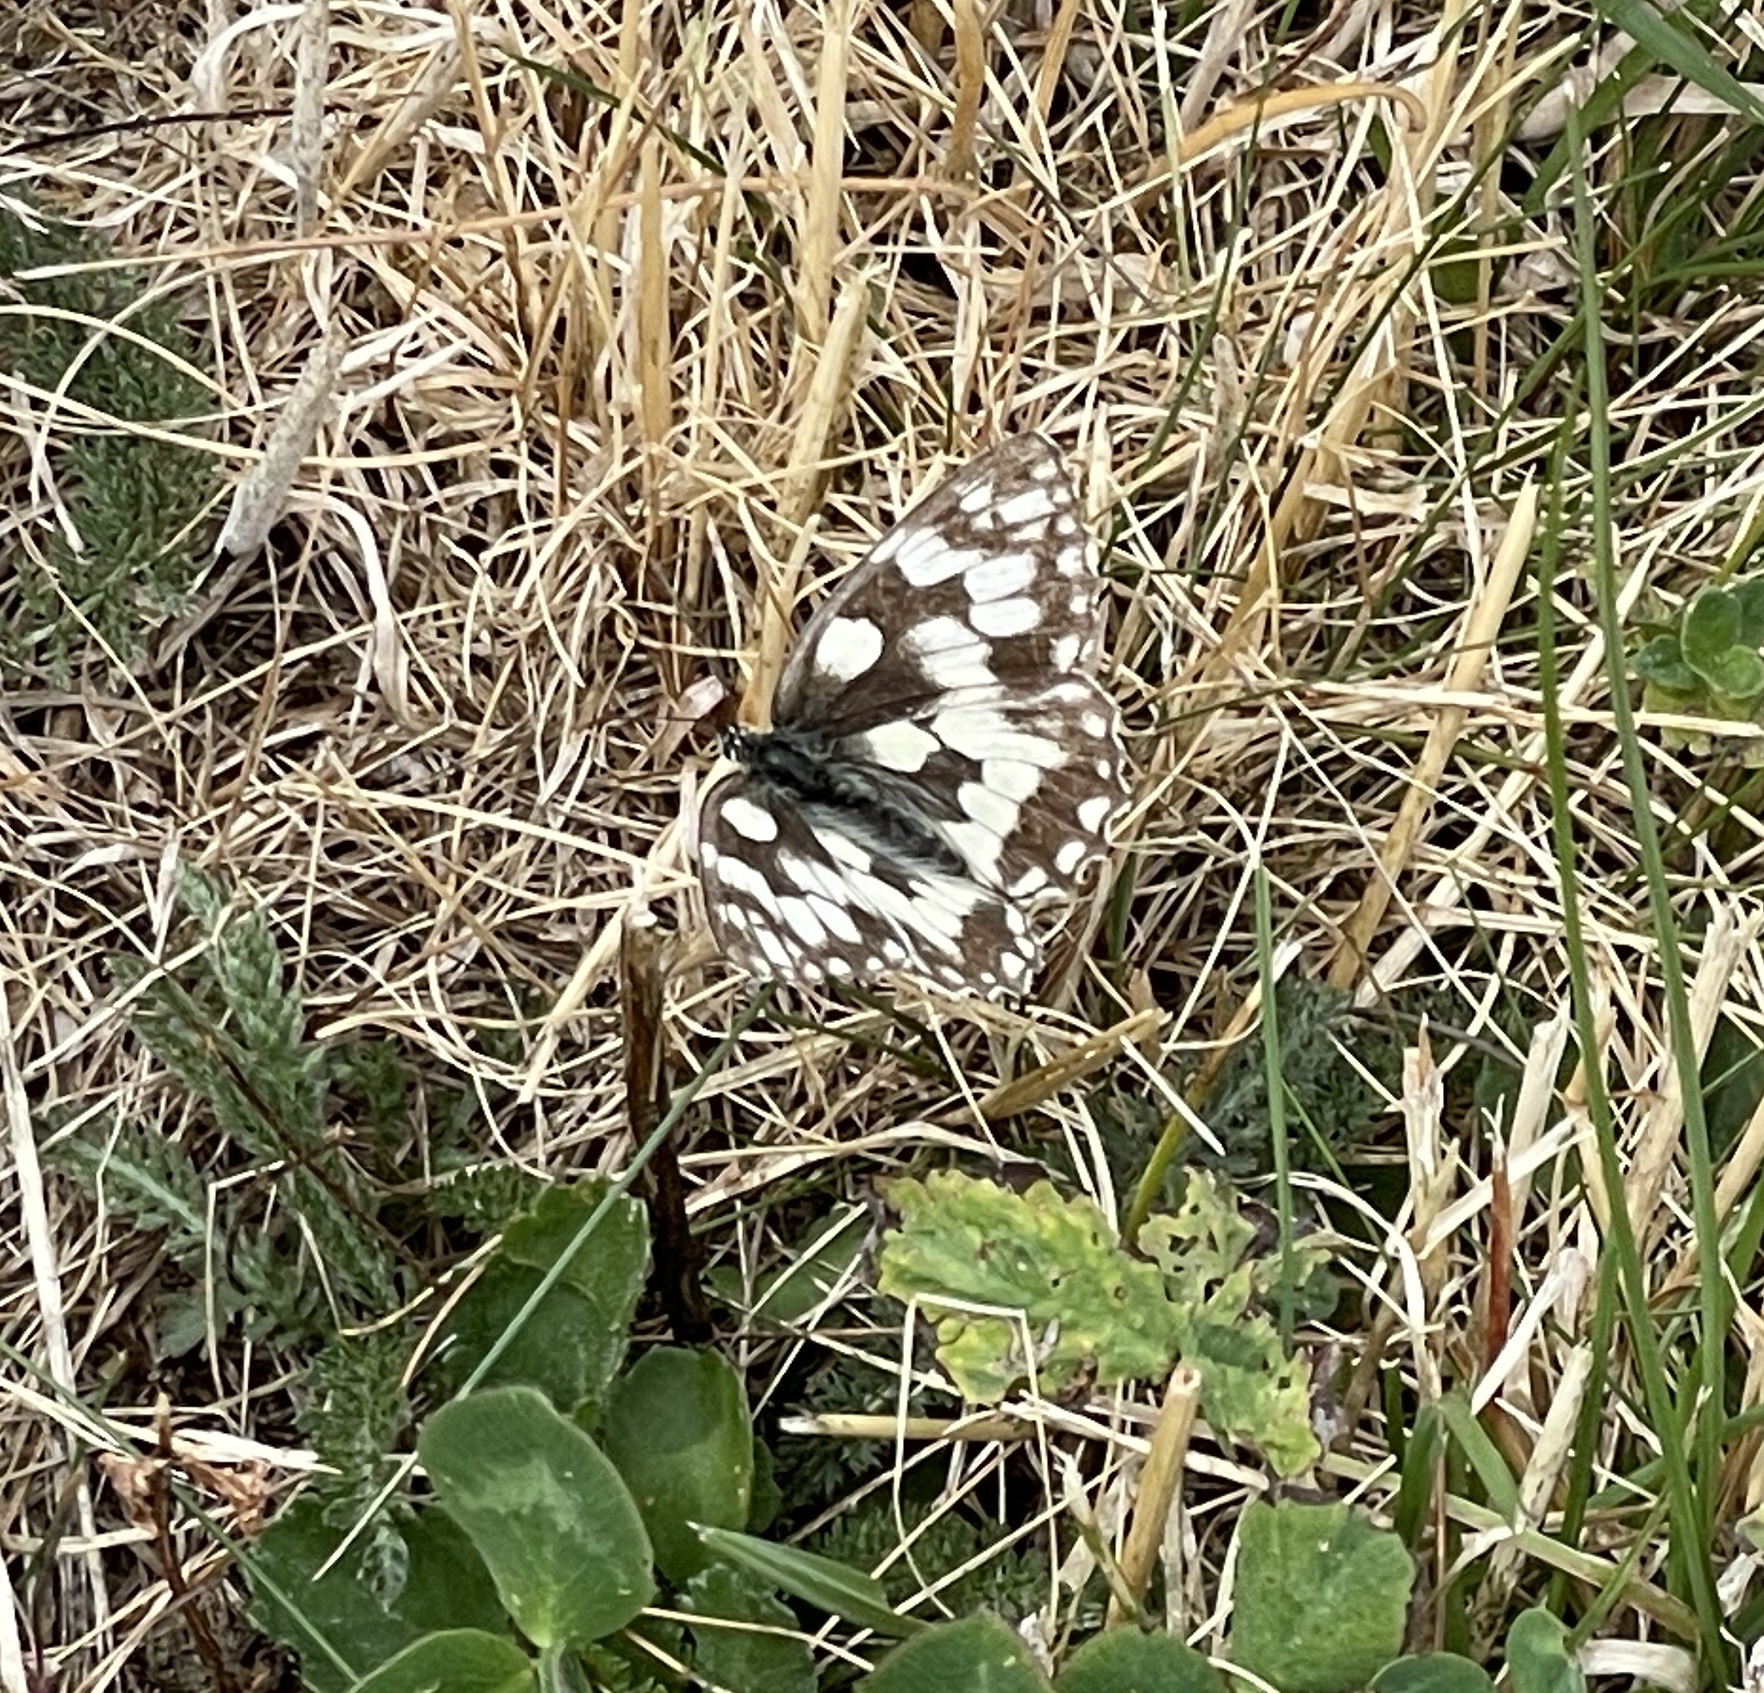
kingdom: Animalia
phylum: Arthropoda
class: Insecta
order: Lepidoptera
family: Nymphalidae
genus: Melanargia
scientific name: Melanargia galathea
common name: Marbled white
